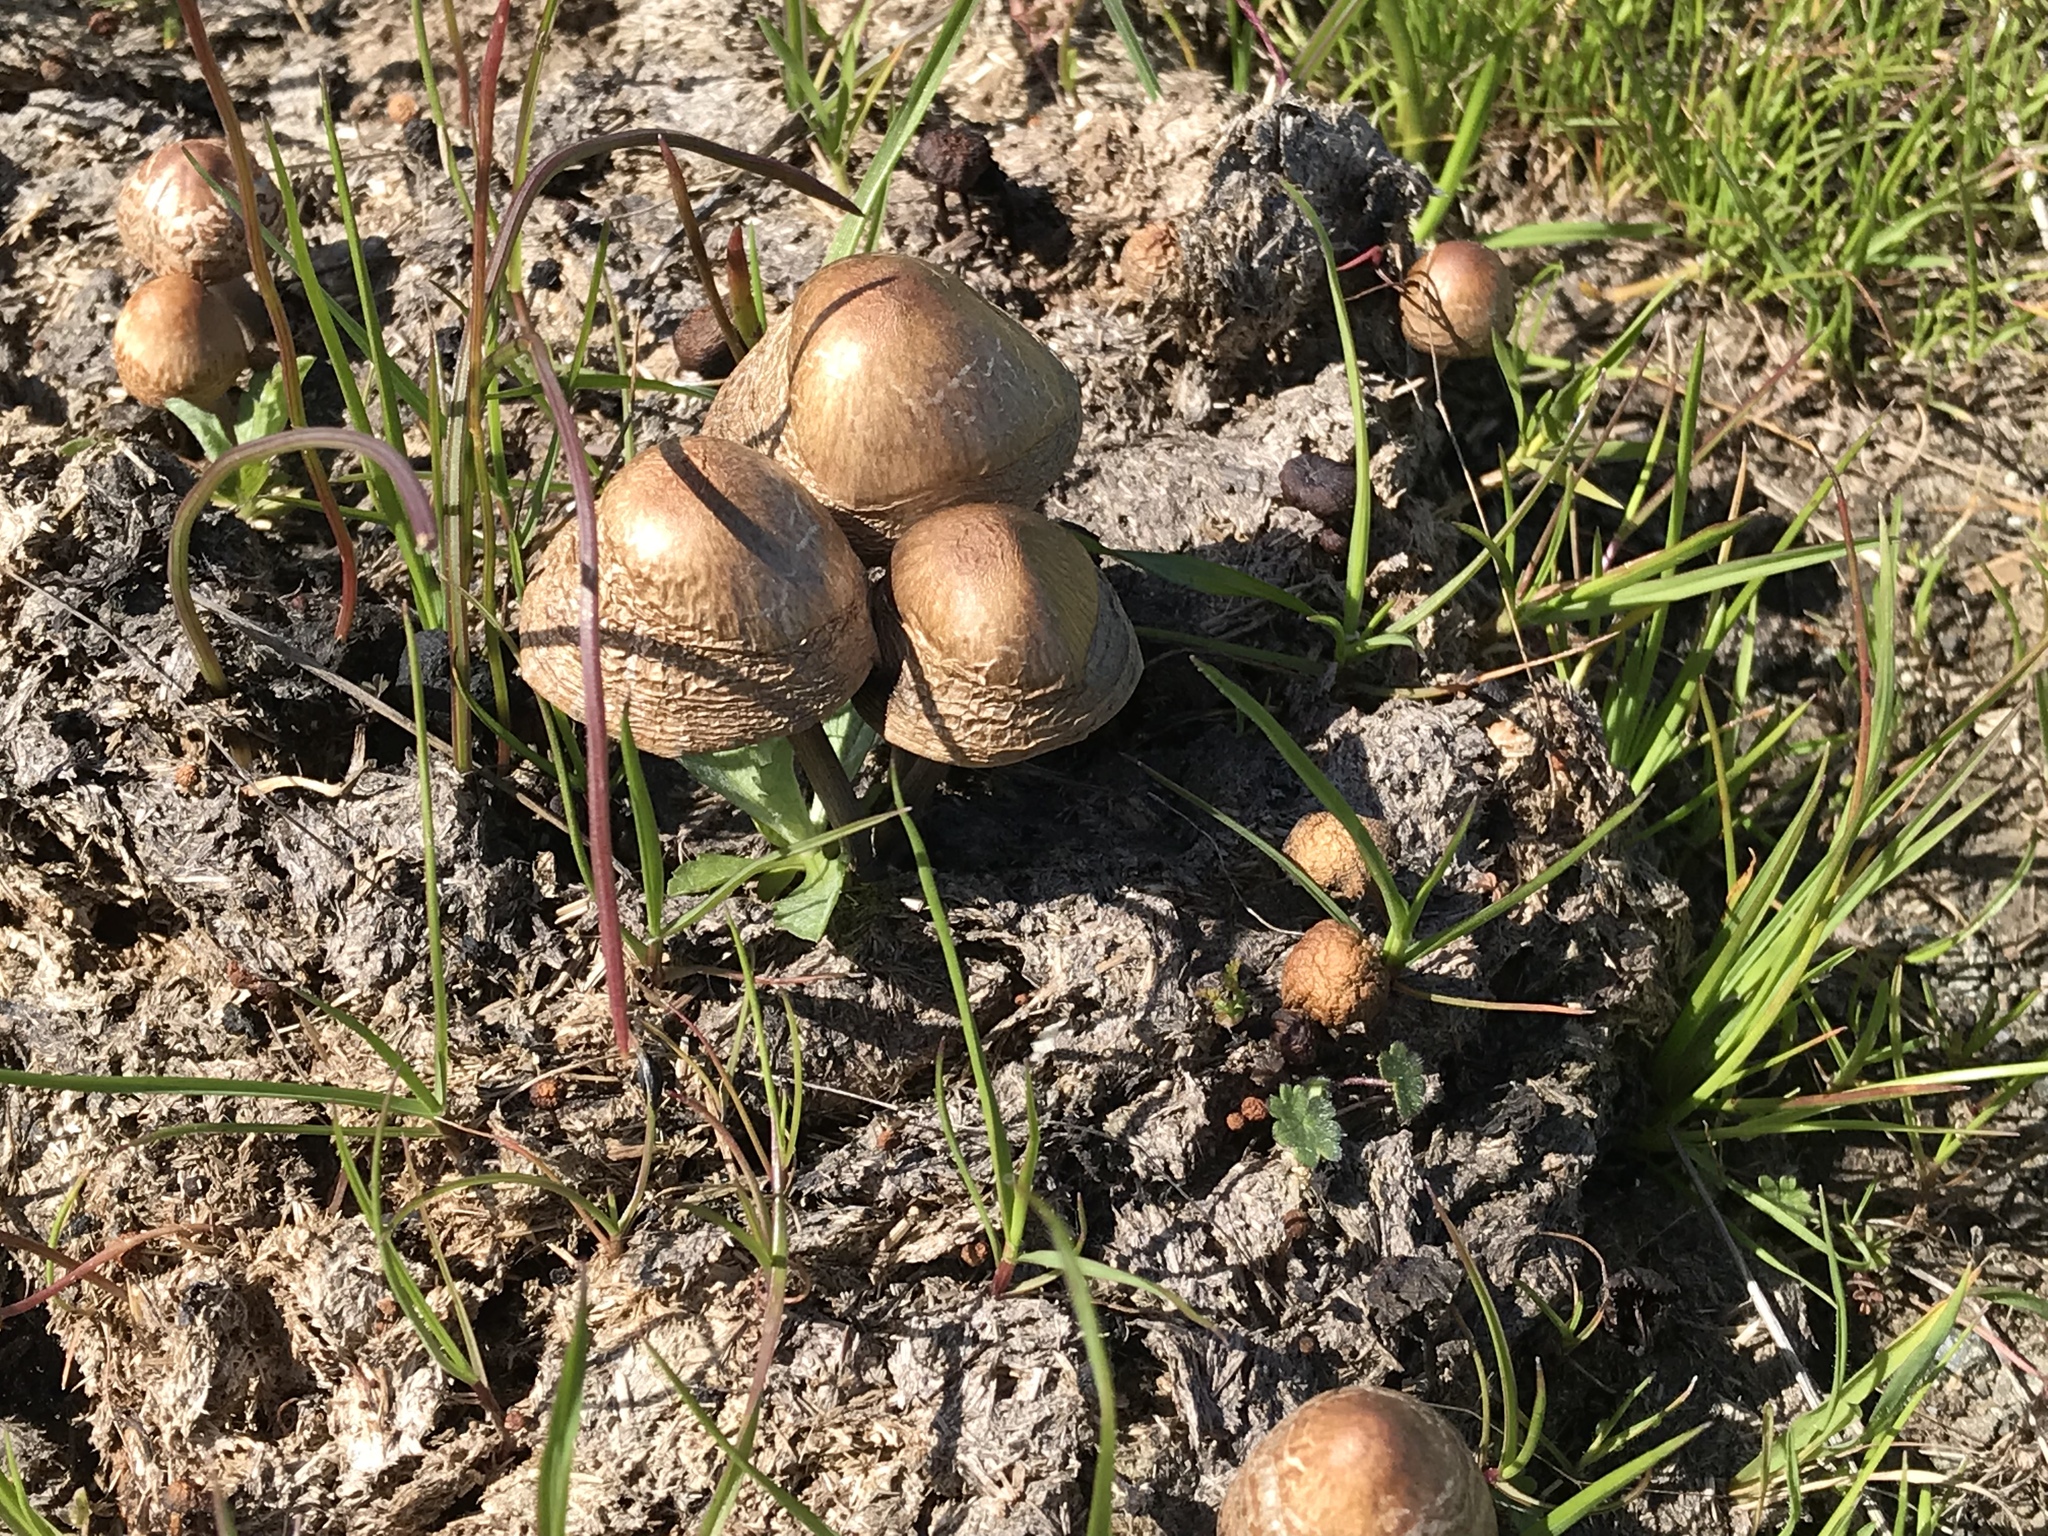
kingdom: Fungi
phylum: Basidiomycota
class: Agaricomycetes
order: Agaricales
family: Bolbitiaceae
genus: Panaeolus
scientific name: Panaeolus papilionaceus
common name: Petticoat mottlegill
